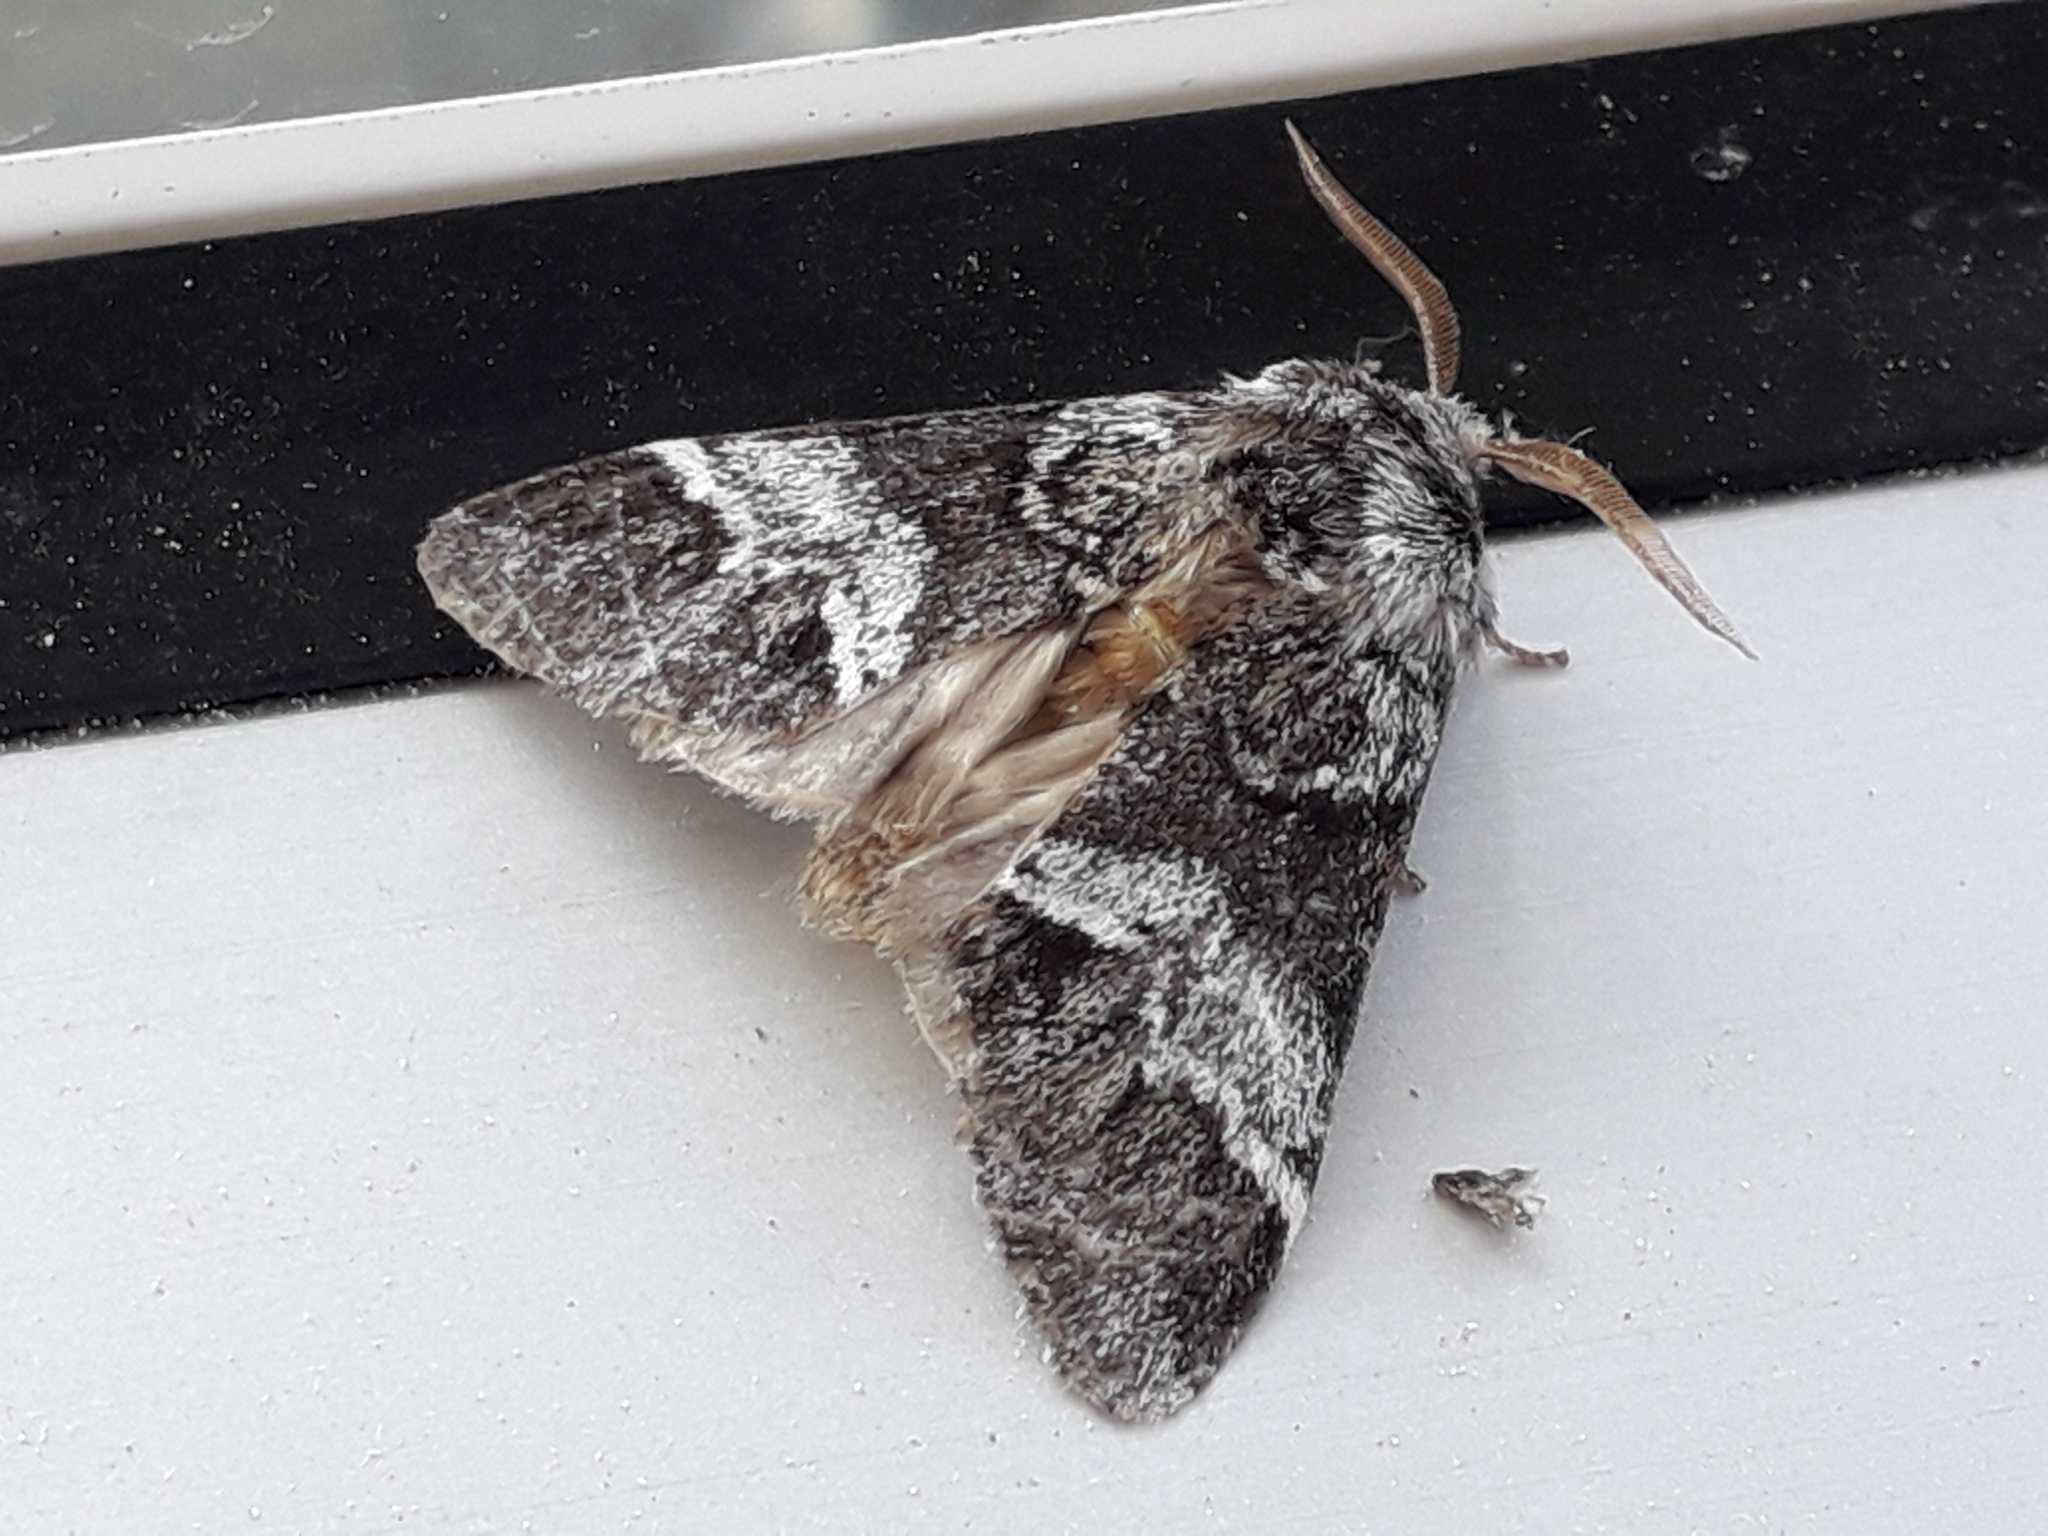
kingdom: Animalia
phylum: Arthropoda
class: Insecta
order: Lepidoptera
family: Notodontidae
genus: Drymonia
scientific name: Drymonia dodonaea
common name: Marbled brown
